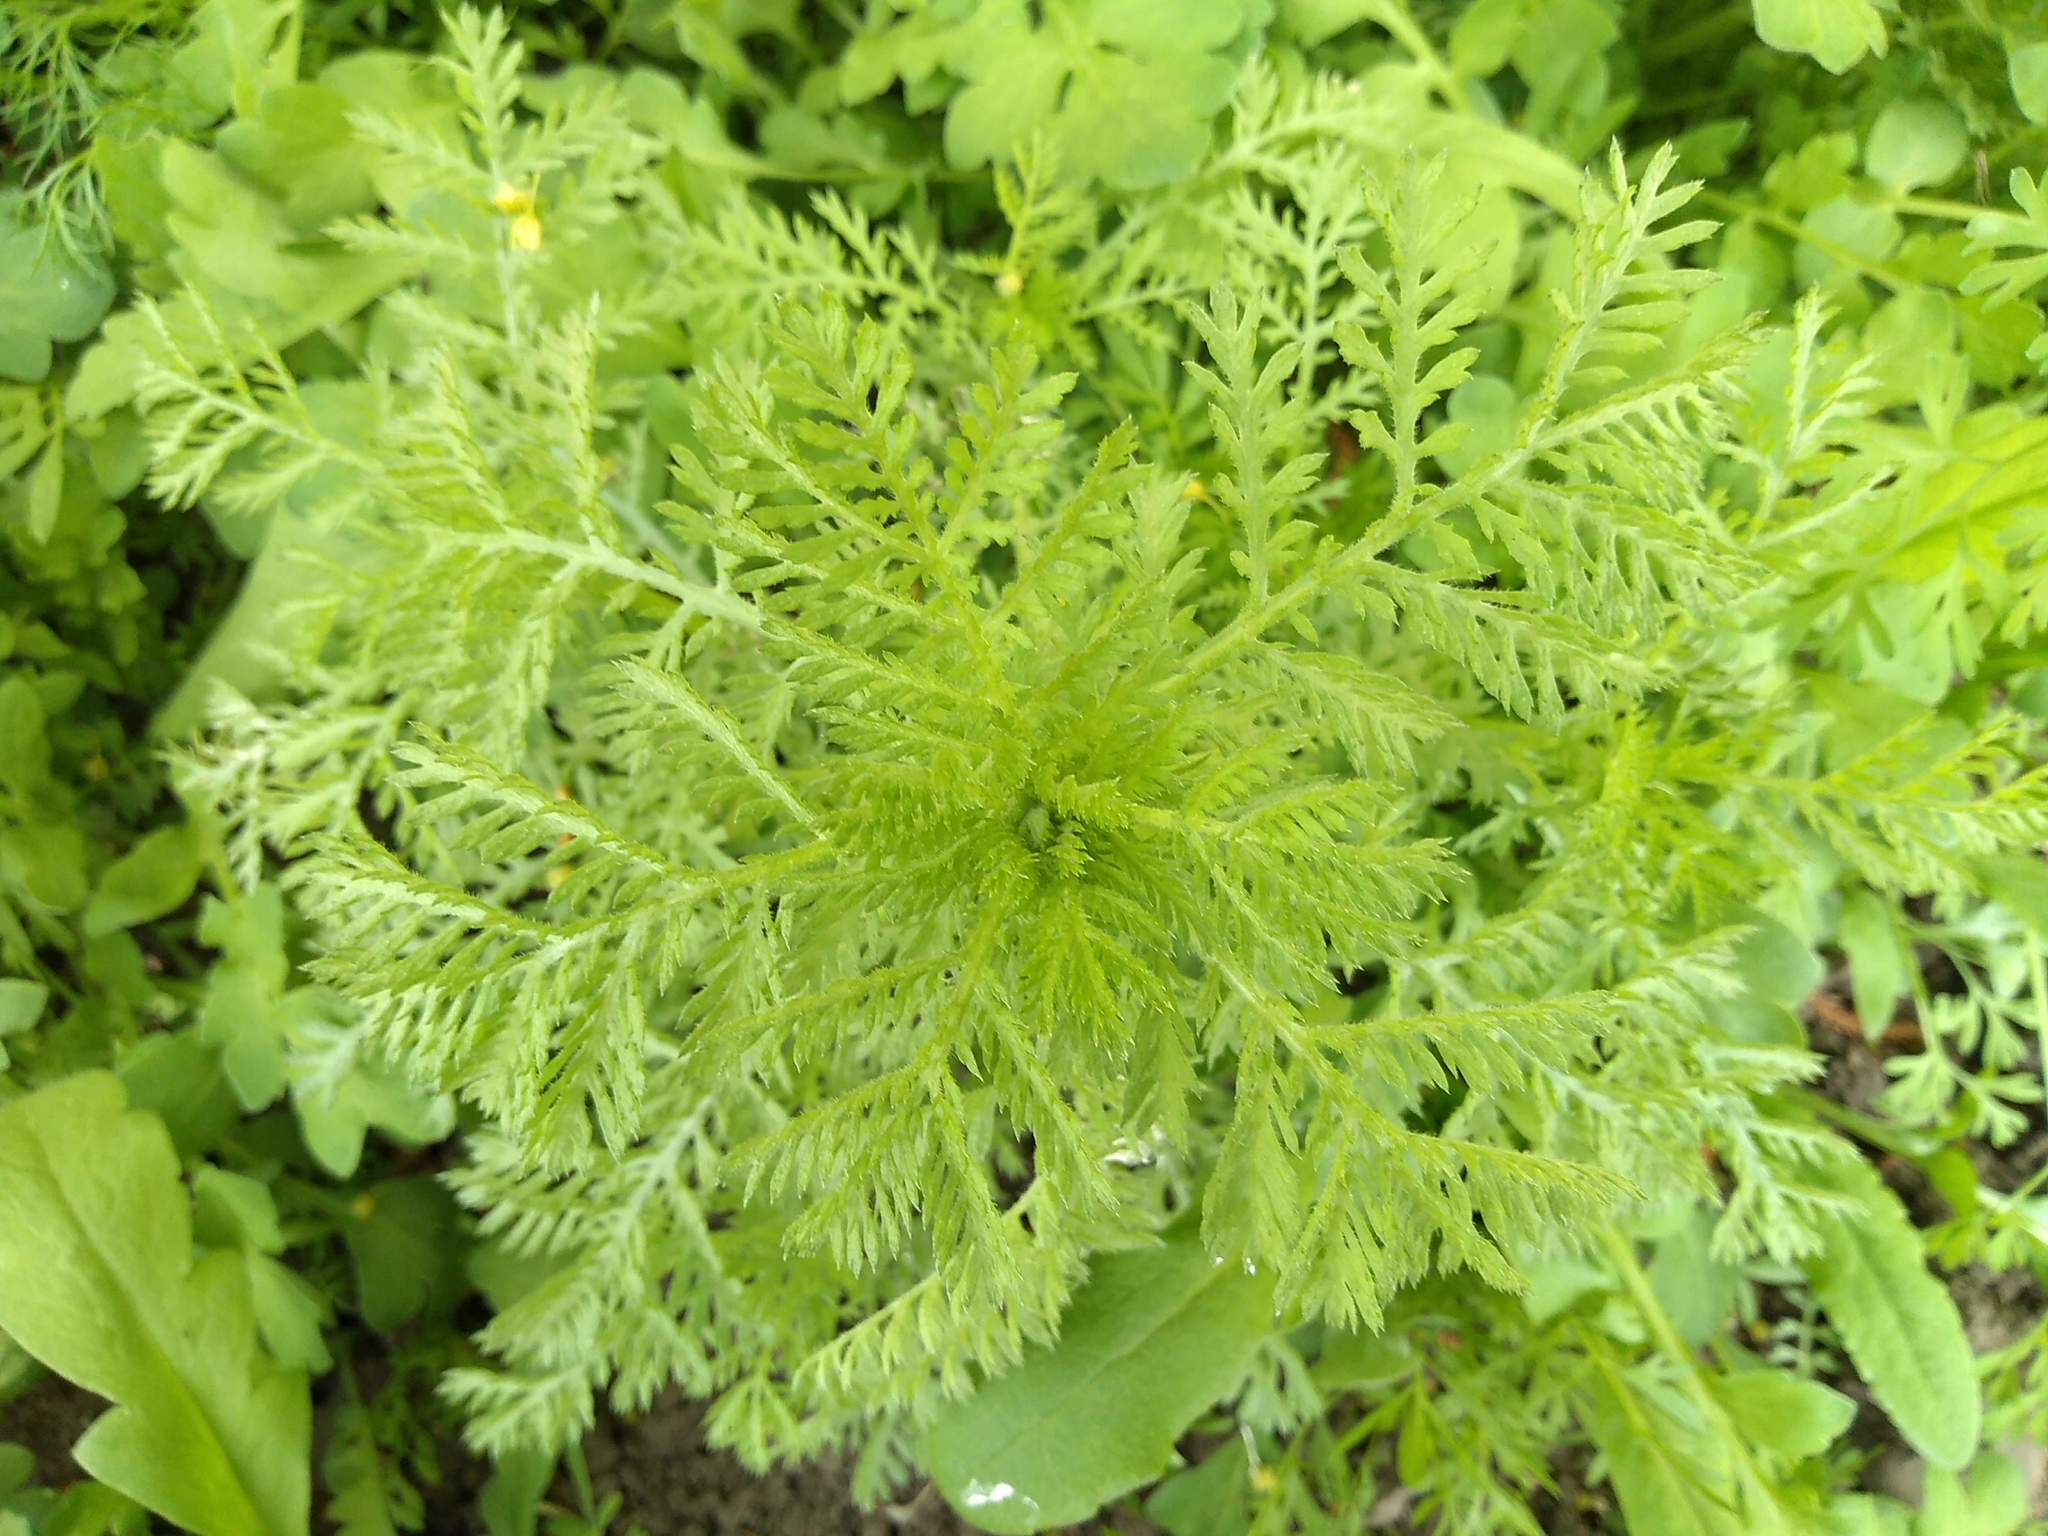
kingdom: Plantae
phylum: Tracheophyta
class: Magnoliopsida
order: Asterales
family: Asteraceae
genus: Tanacetum
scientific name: Tanacetum vulgare
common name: Common tansy
